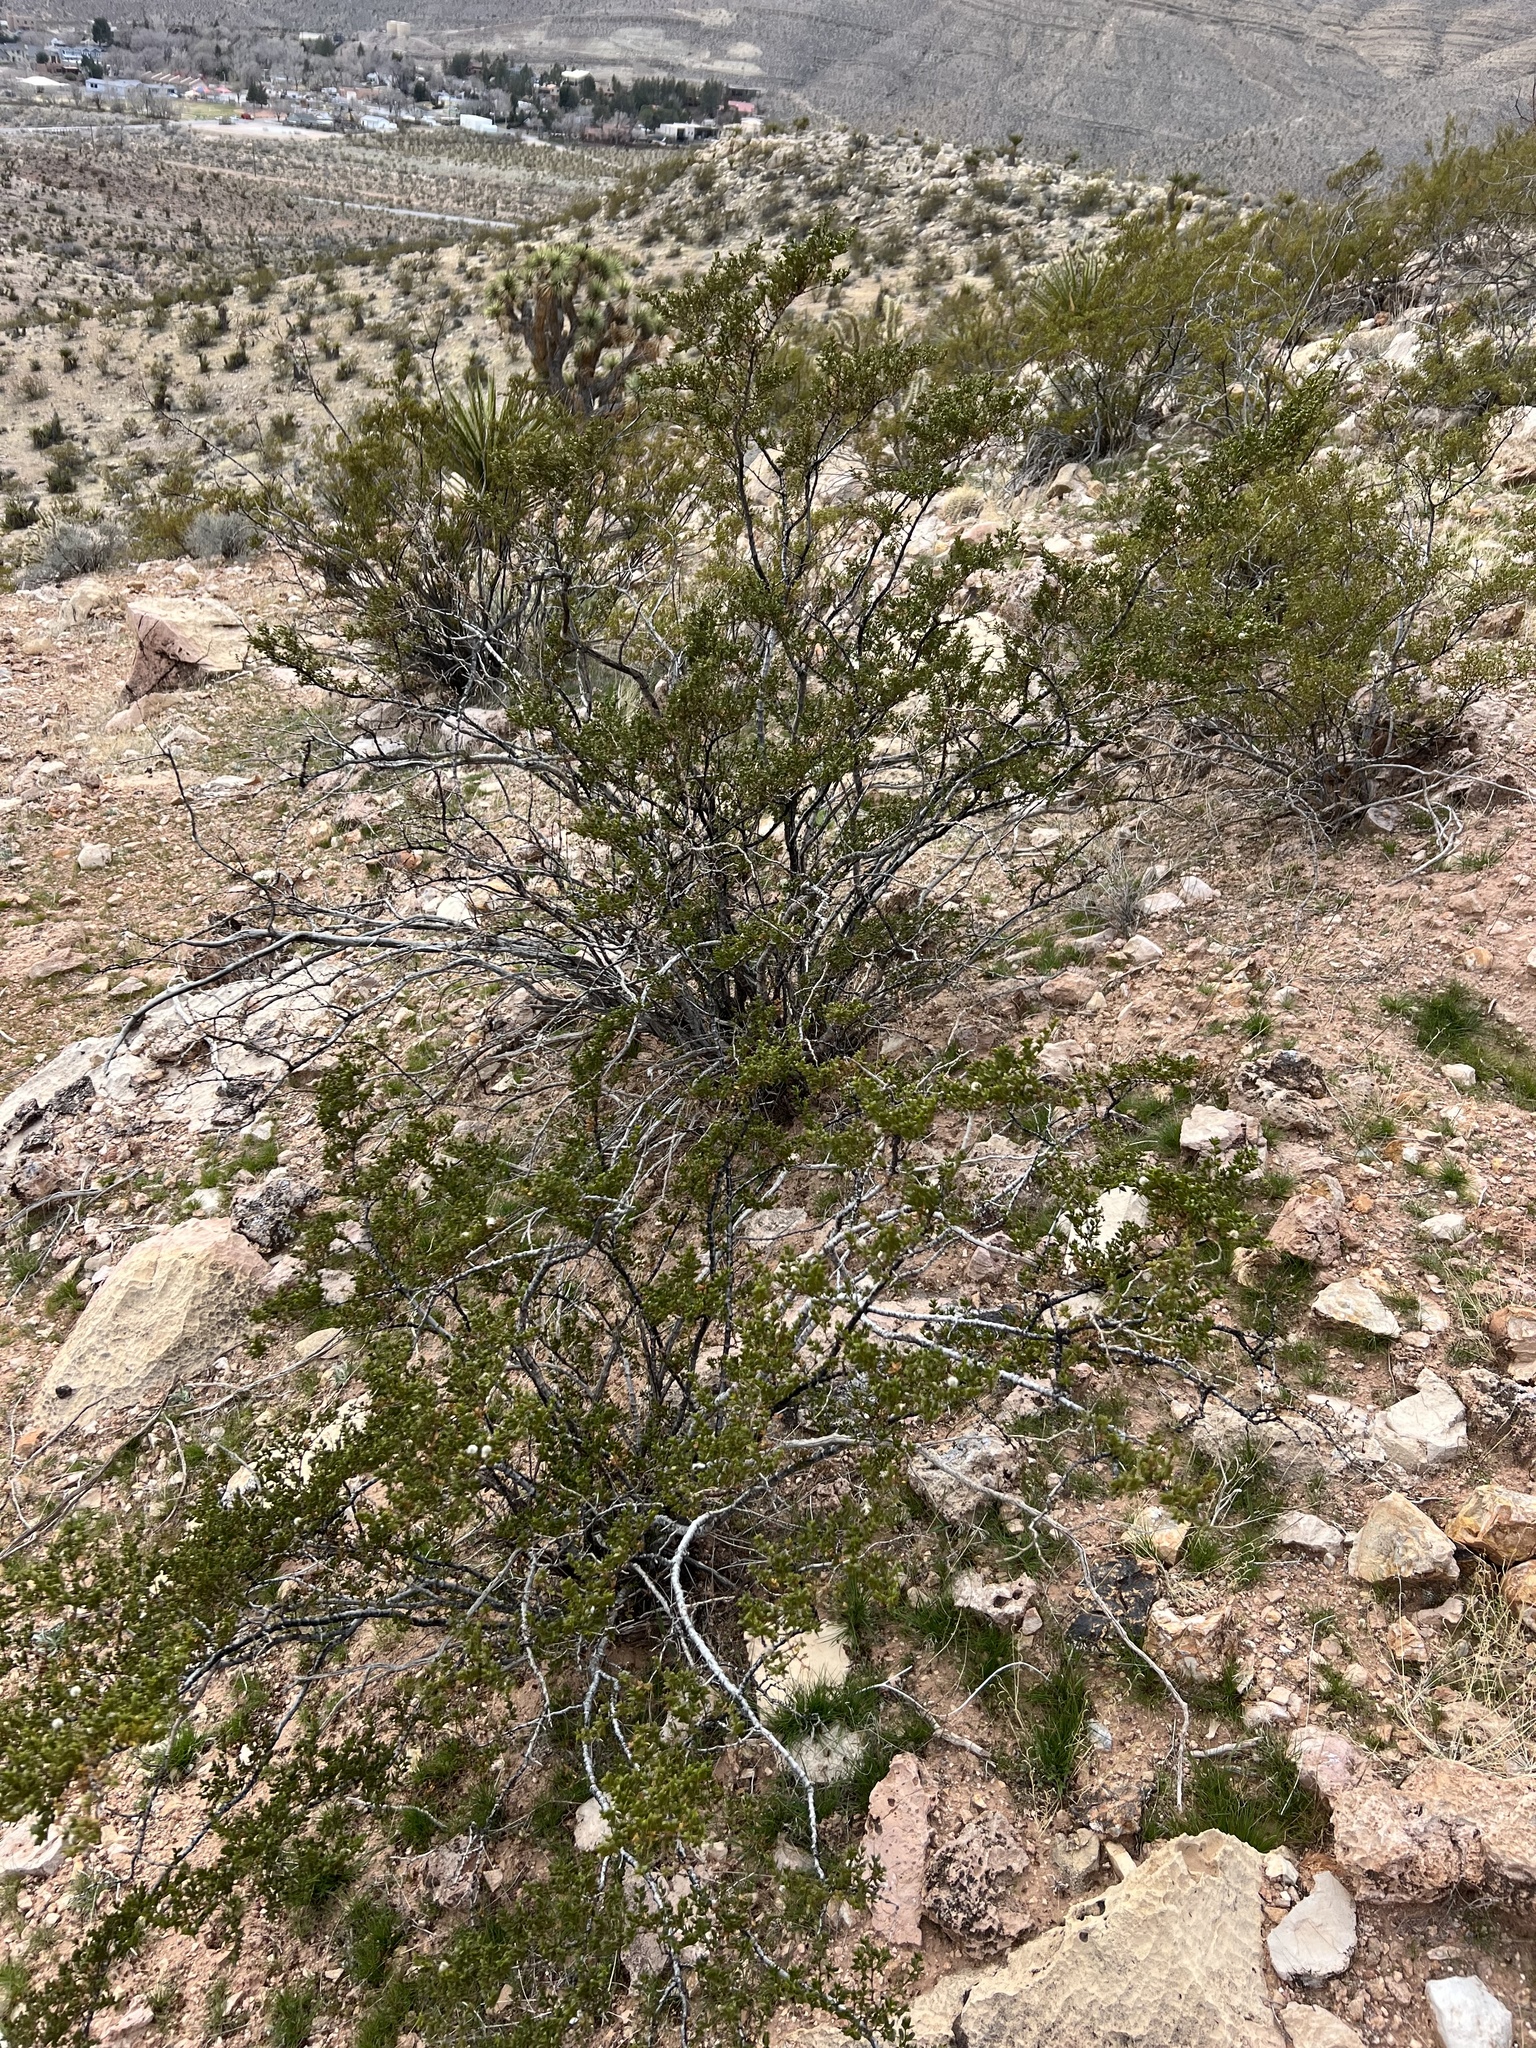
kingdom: Plantae
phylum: Tracheophyta
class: Magnoliopsida
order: Zygophyllales
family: Zygophyllaceae
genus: Larrea
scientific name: Larrea tridentata
